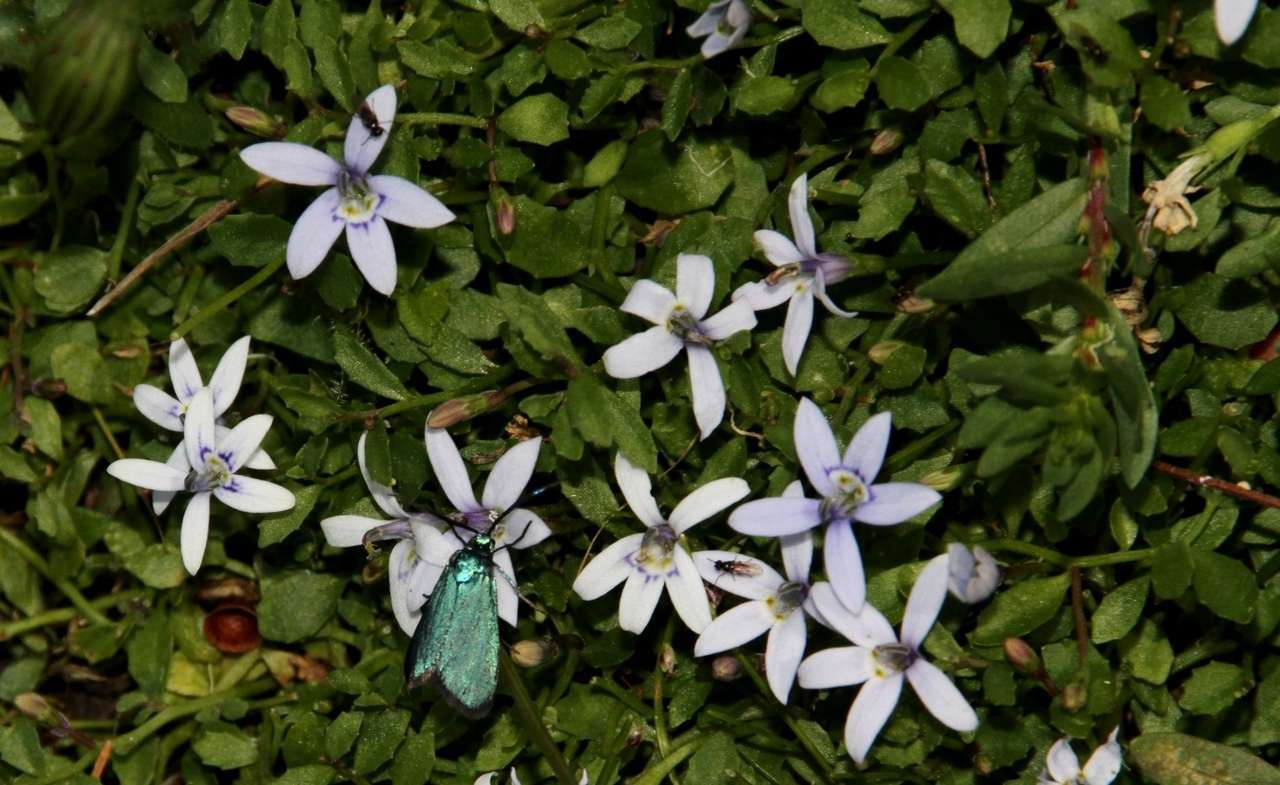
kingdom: Plantae
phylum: Tracheophyta
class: Magnoliopsida
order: Asterales
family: Campanulaceae
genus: Isotoma
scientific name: Isotoma fluviatilis
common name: Isotoma
